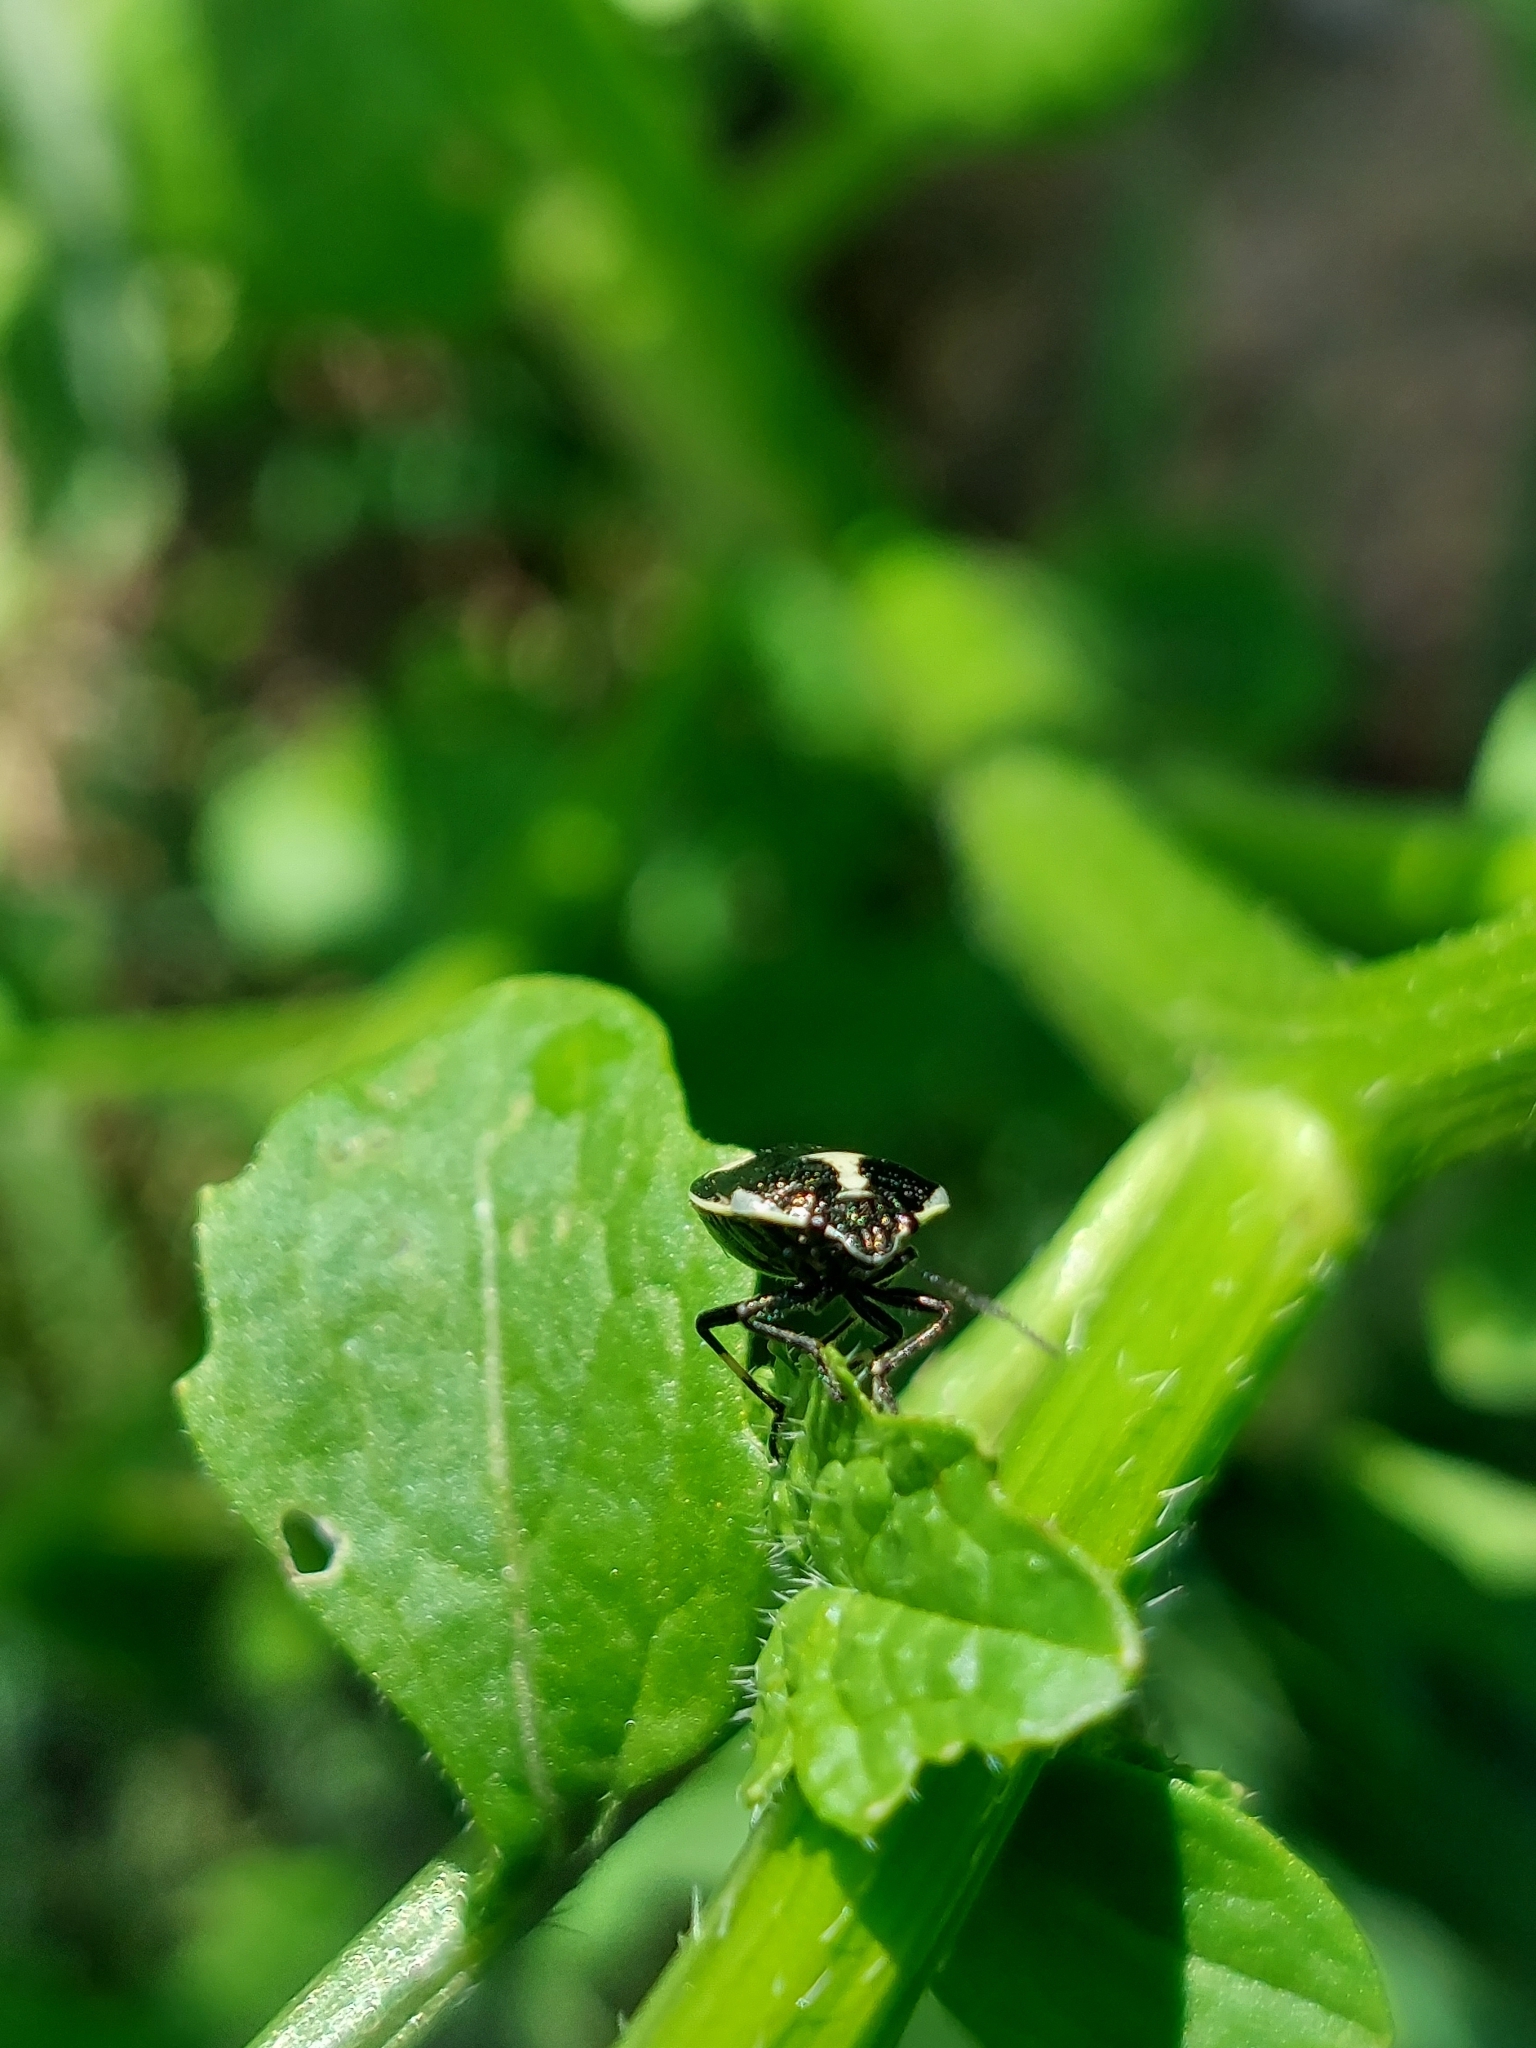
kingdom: Animalia
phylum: Arthropoda
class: Insecta
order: Hemiptera
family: Pentatomidae
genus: Eurydema
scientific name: Eurydema oleracea
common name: Cabbage bug
